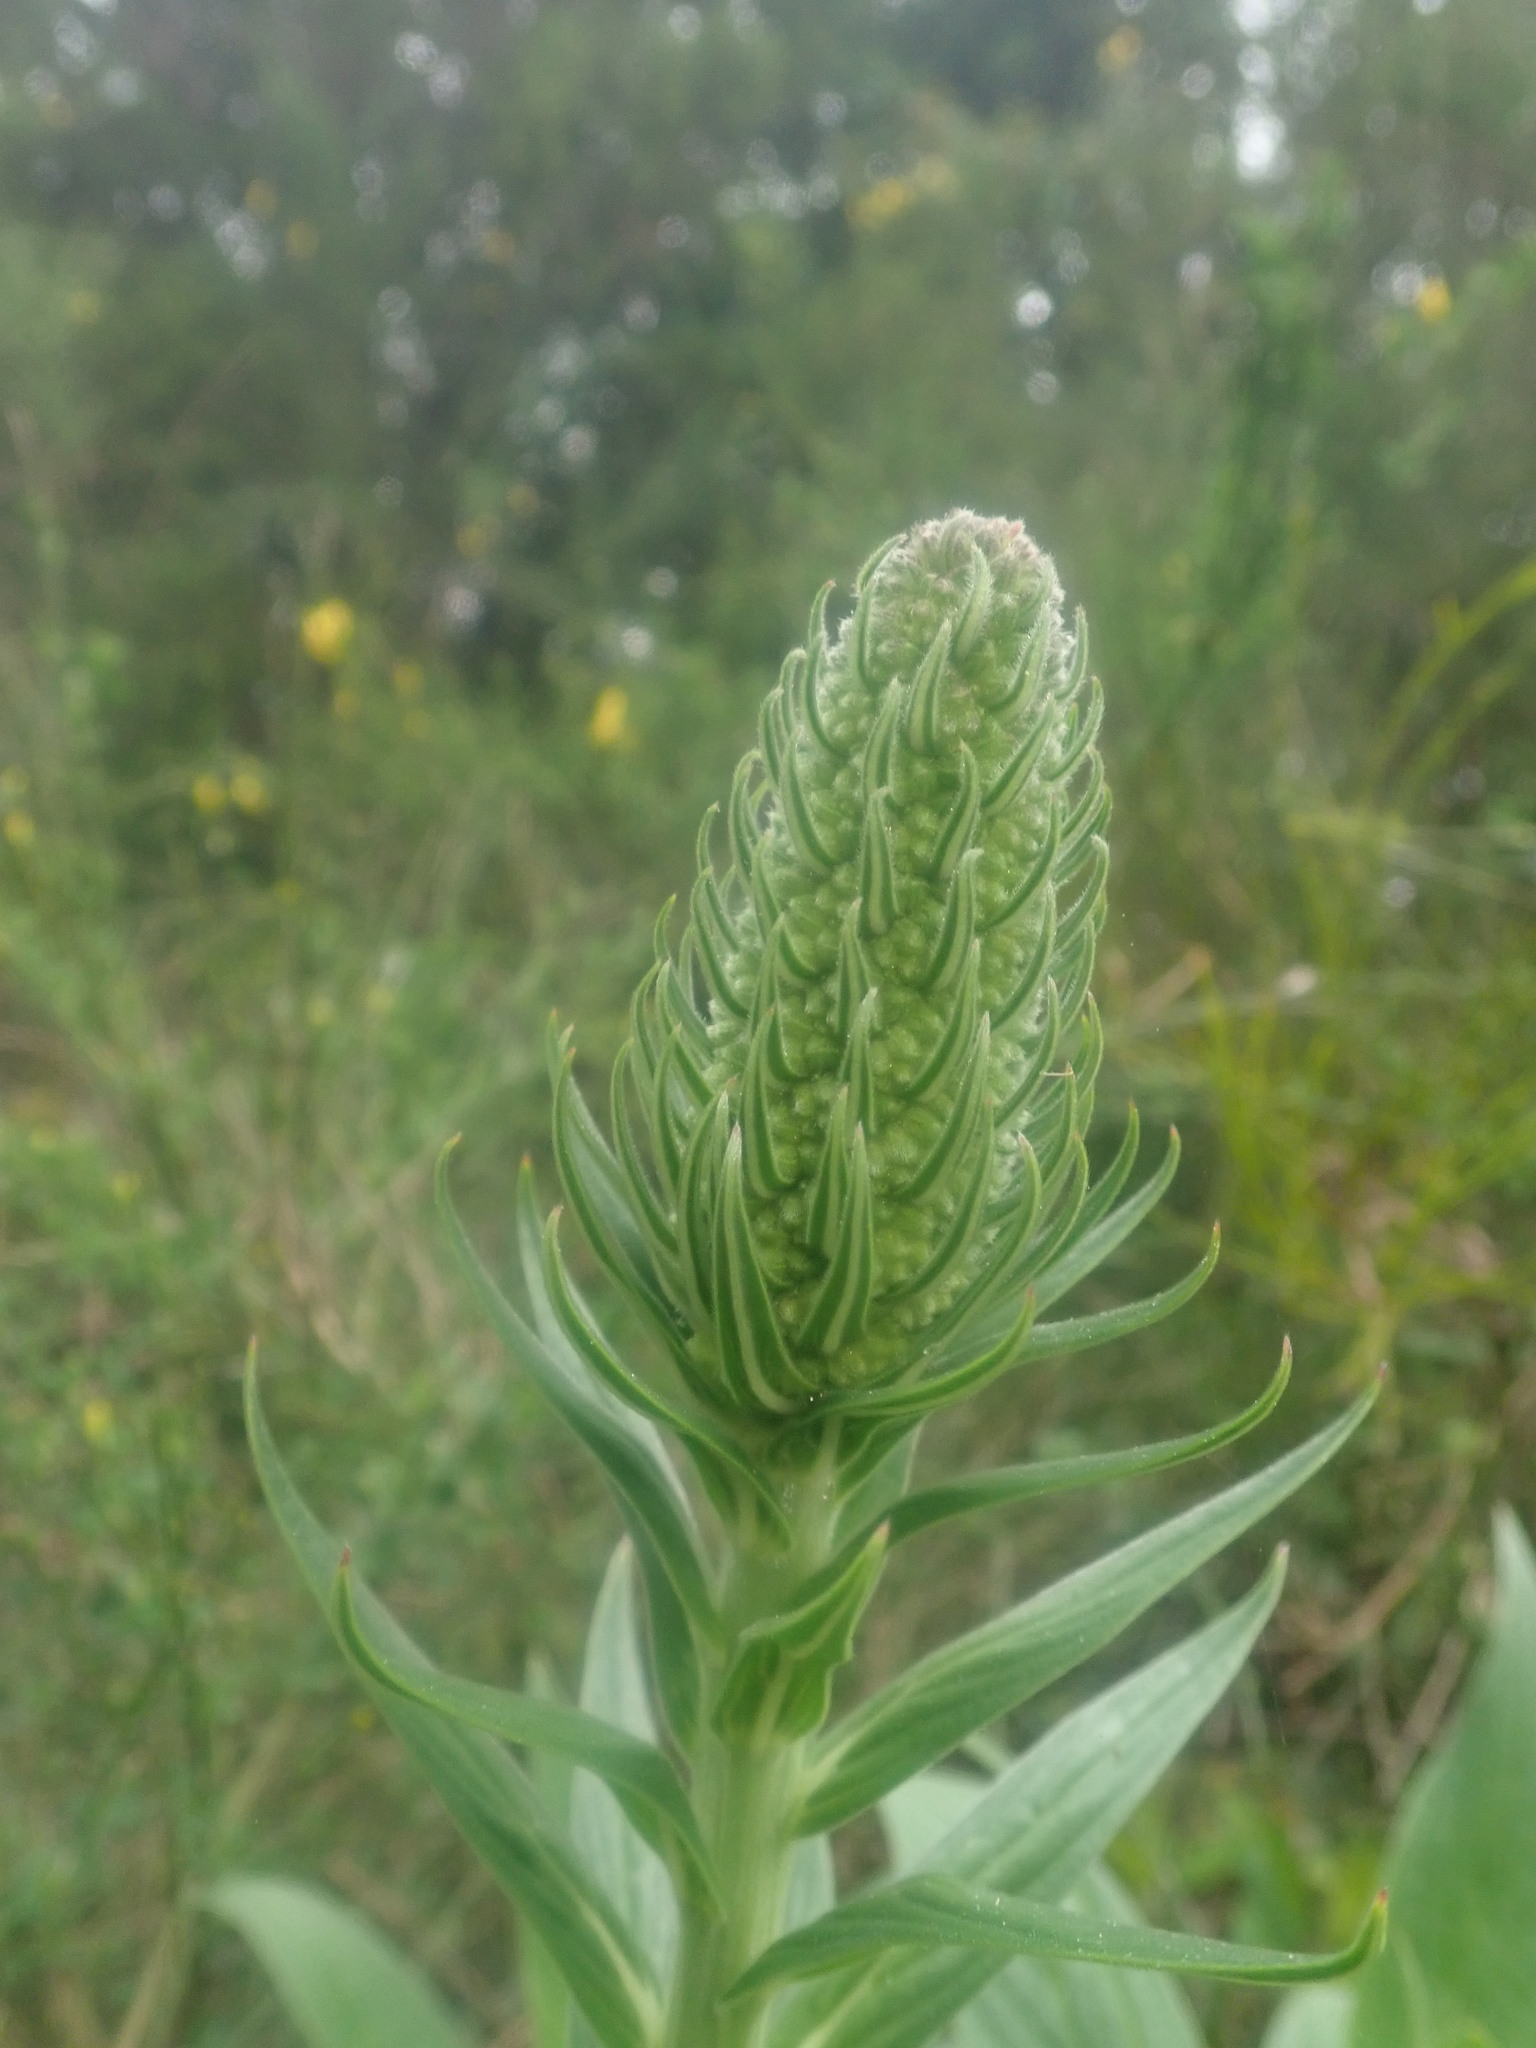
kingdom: Plantae
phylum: Tracheophyta
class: Magnoliopsida
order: Boraginales
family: Boraginaceae
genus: Echium
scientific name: Echium candicans
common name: Pride of madeira
